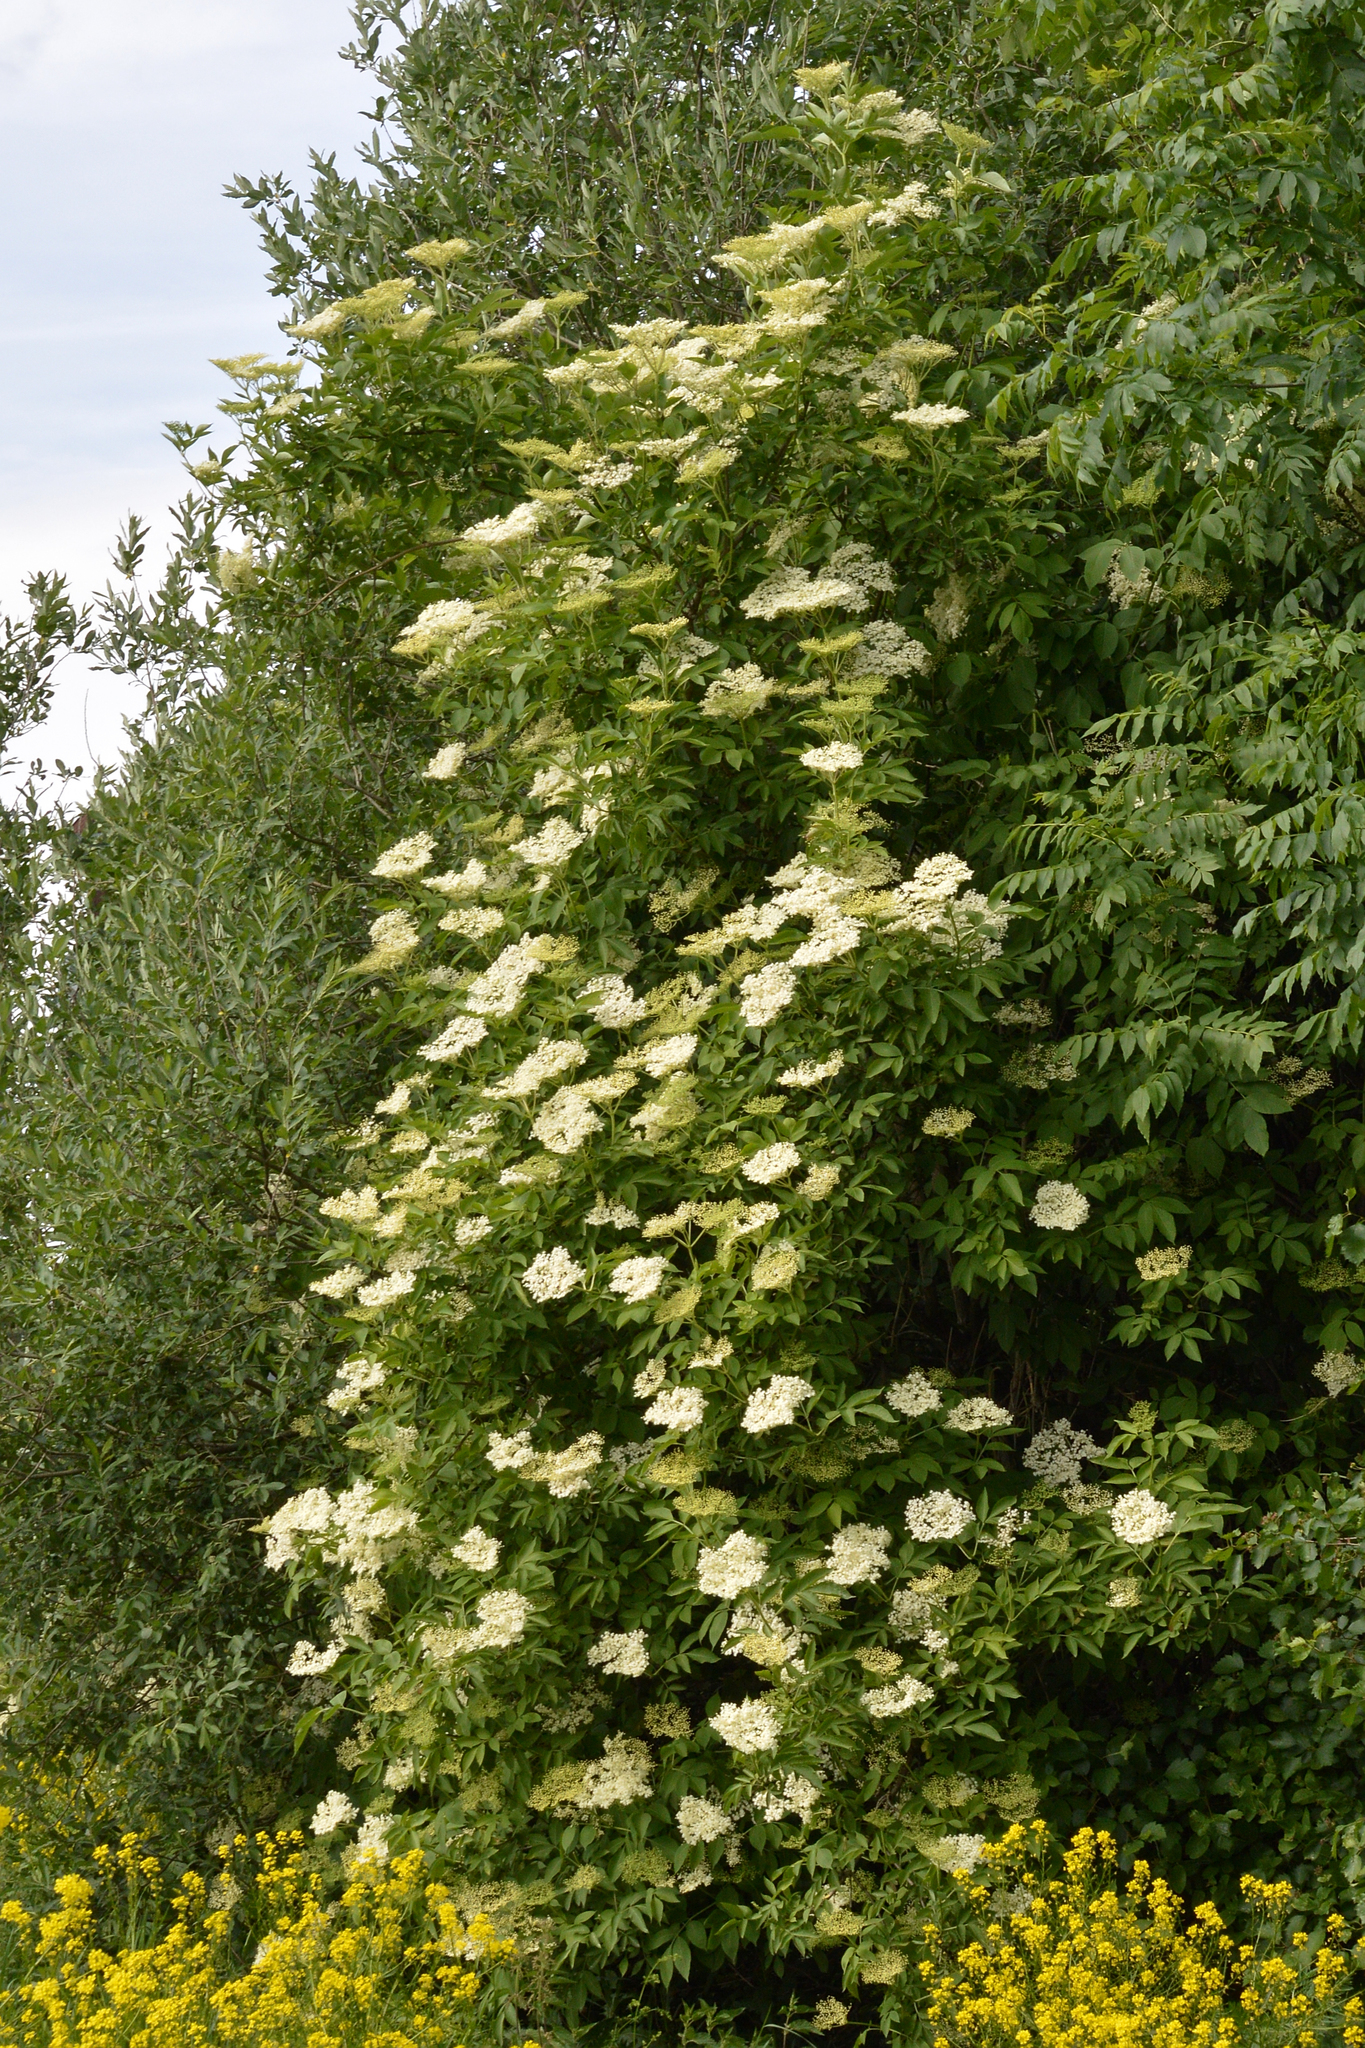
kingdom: Plantae
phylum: Tracheophyta
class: Magnoliopsida
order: Dipsacales
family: Viburnaceae
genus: Sambucus
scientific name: Sambucus nigra
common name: Elder
